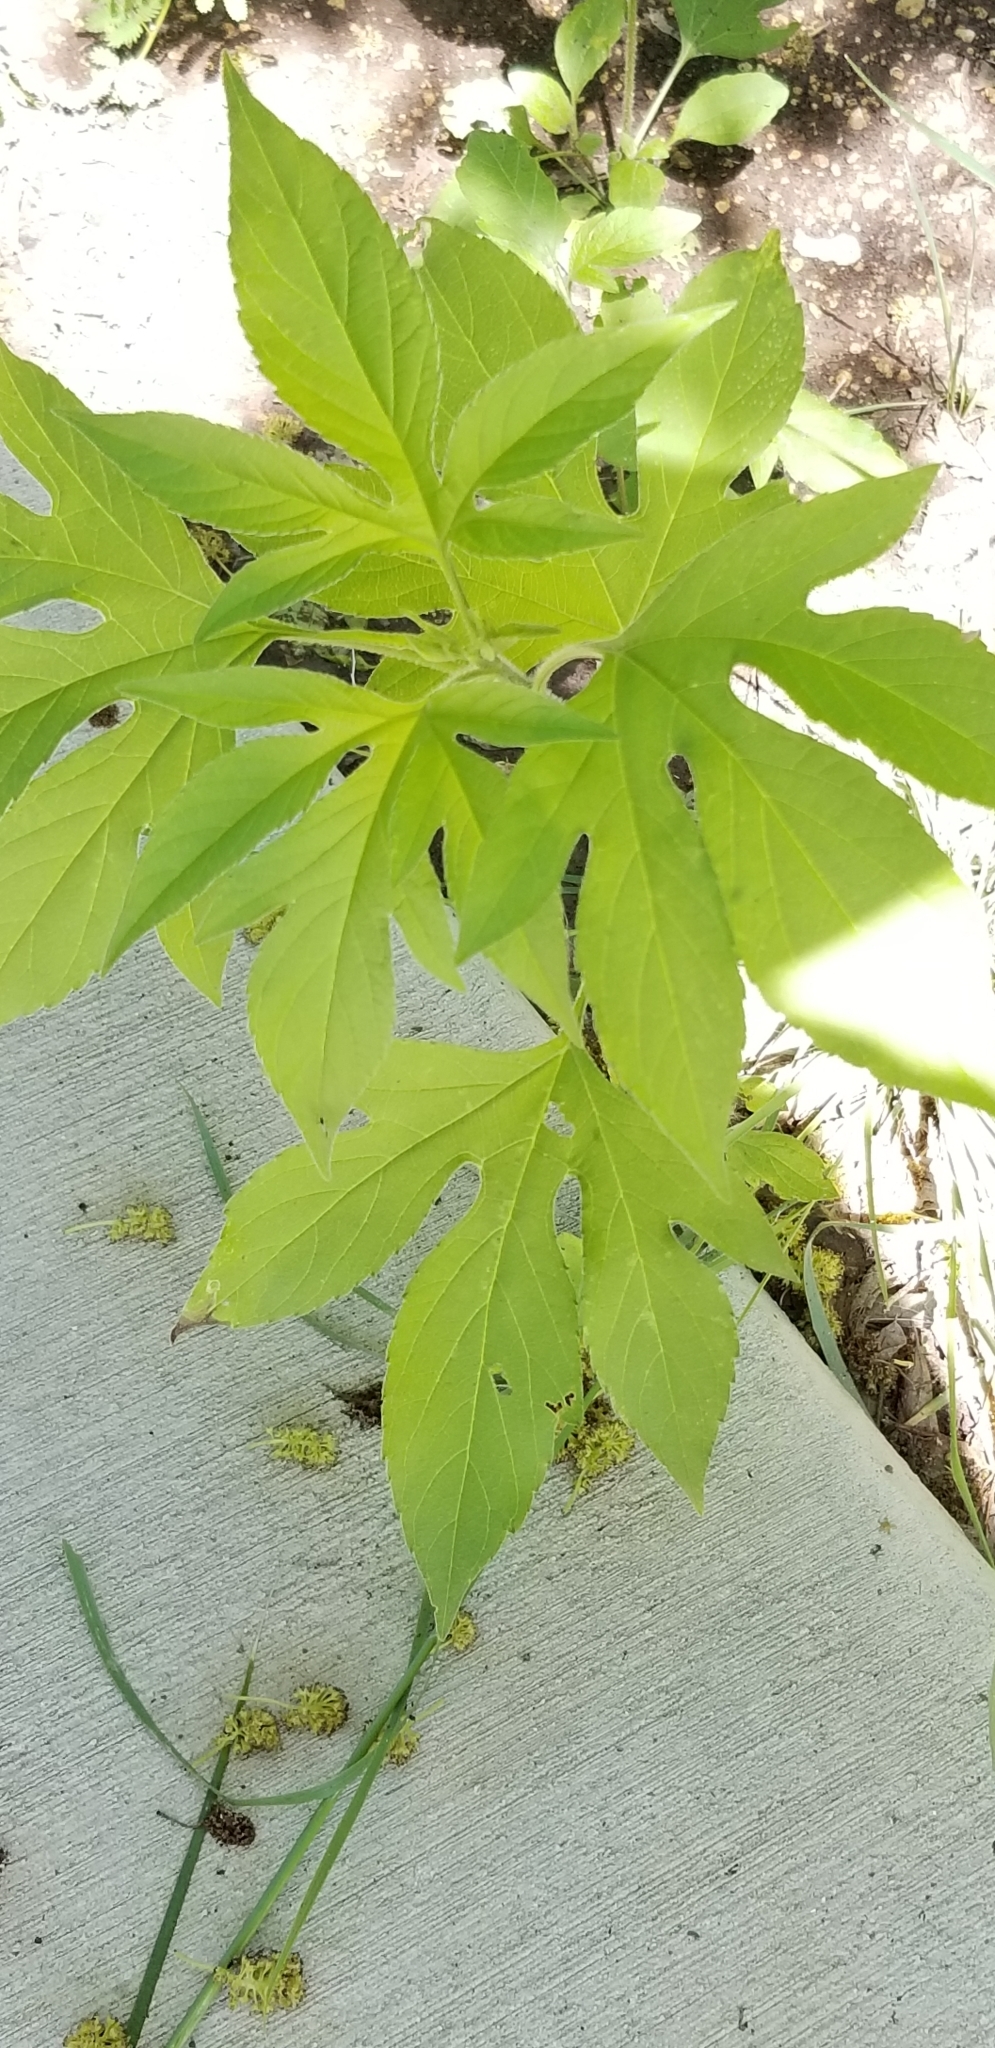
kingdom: Plantae
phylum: Tracheophyta
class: Magnoliopsida
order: Asterales
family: Asteraceae
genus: Ambrosia
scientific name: Ambrosia trifida
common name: Giant ragweed
